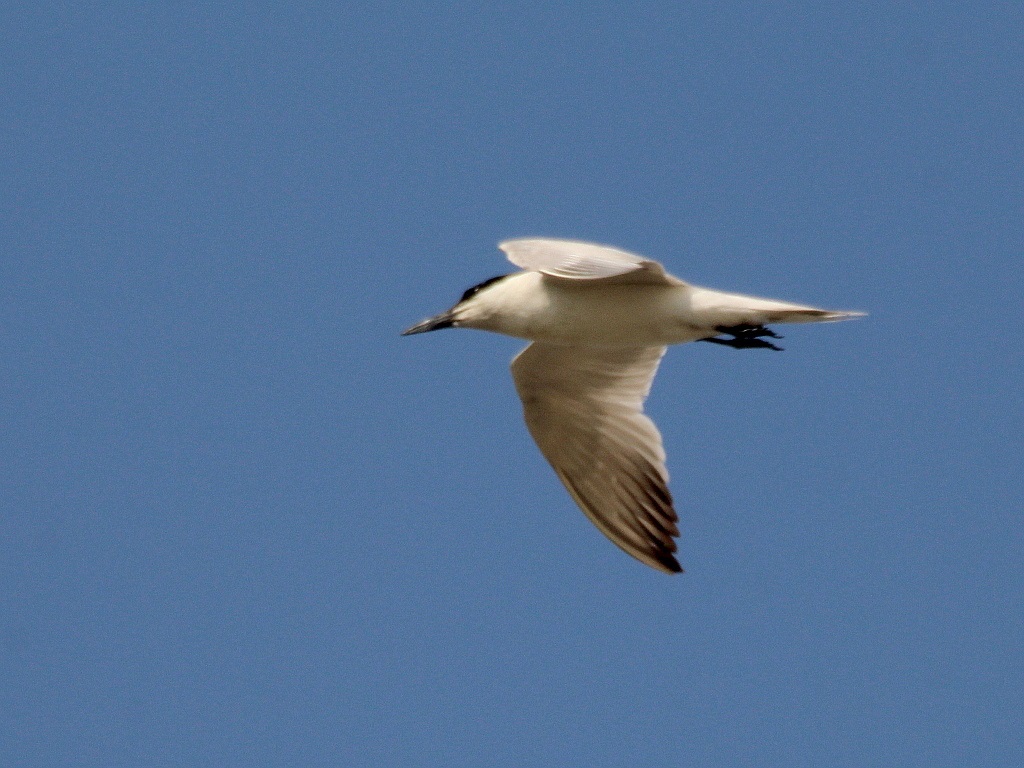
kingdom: Animalia
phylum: Chordata
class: Aves
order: Charadriiformes
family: Laridae
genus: Gelochelidon
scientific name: Gelochelidon nilotica
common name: Gull-billed tern
